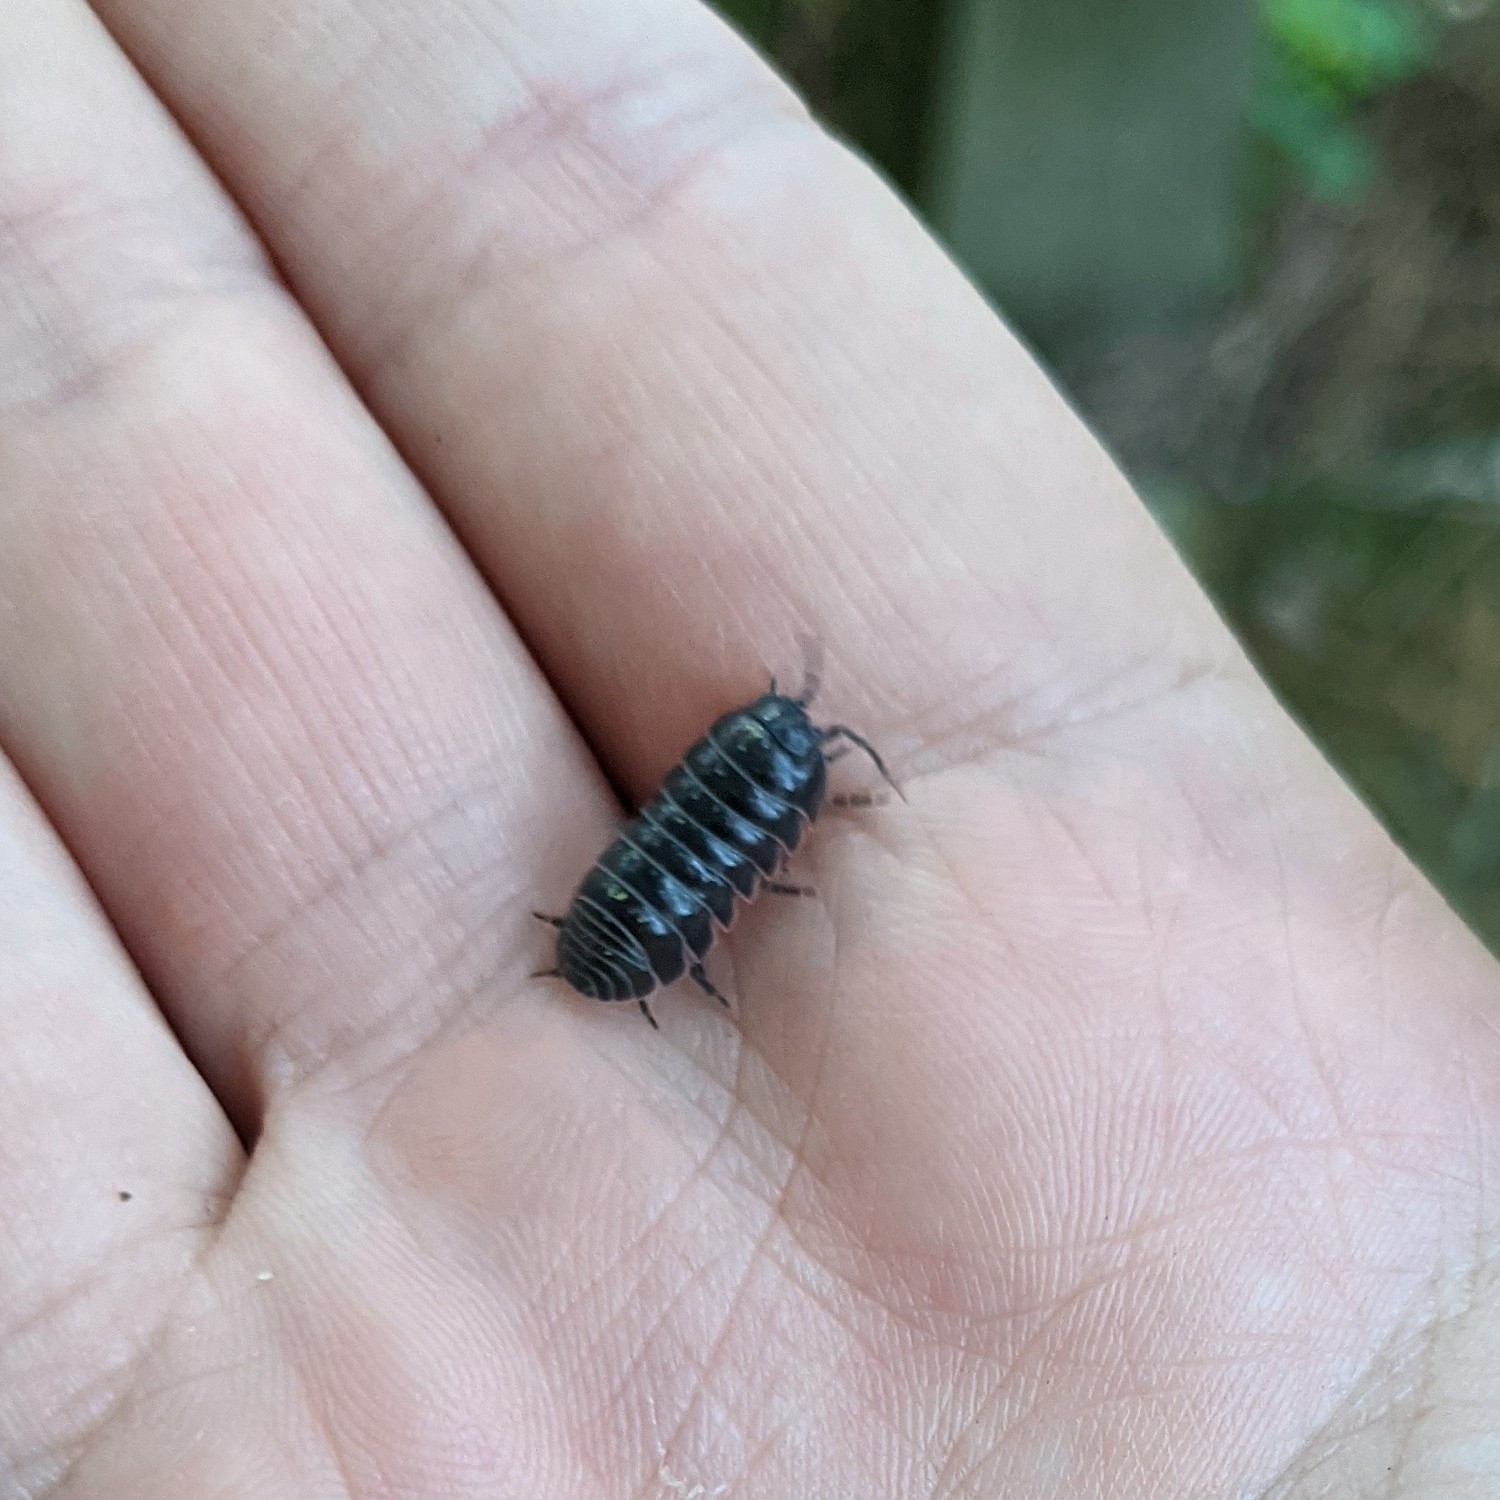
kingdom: Animalia
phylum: Arthropoda
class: Malacostraca
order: Isopoda
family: Armadillidiidae
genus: Armadillidium
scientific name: Armadillidium vulgare
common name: Common pill woodlouse
